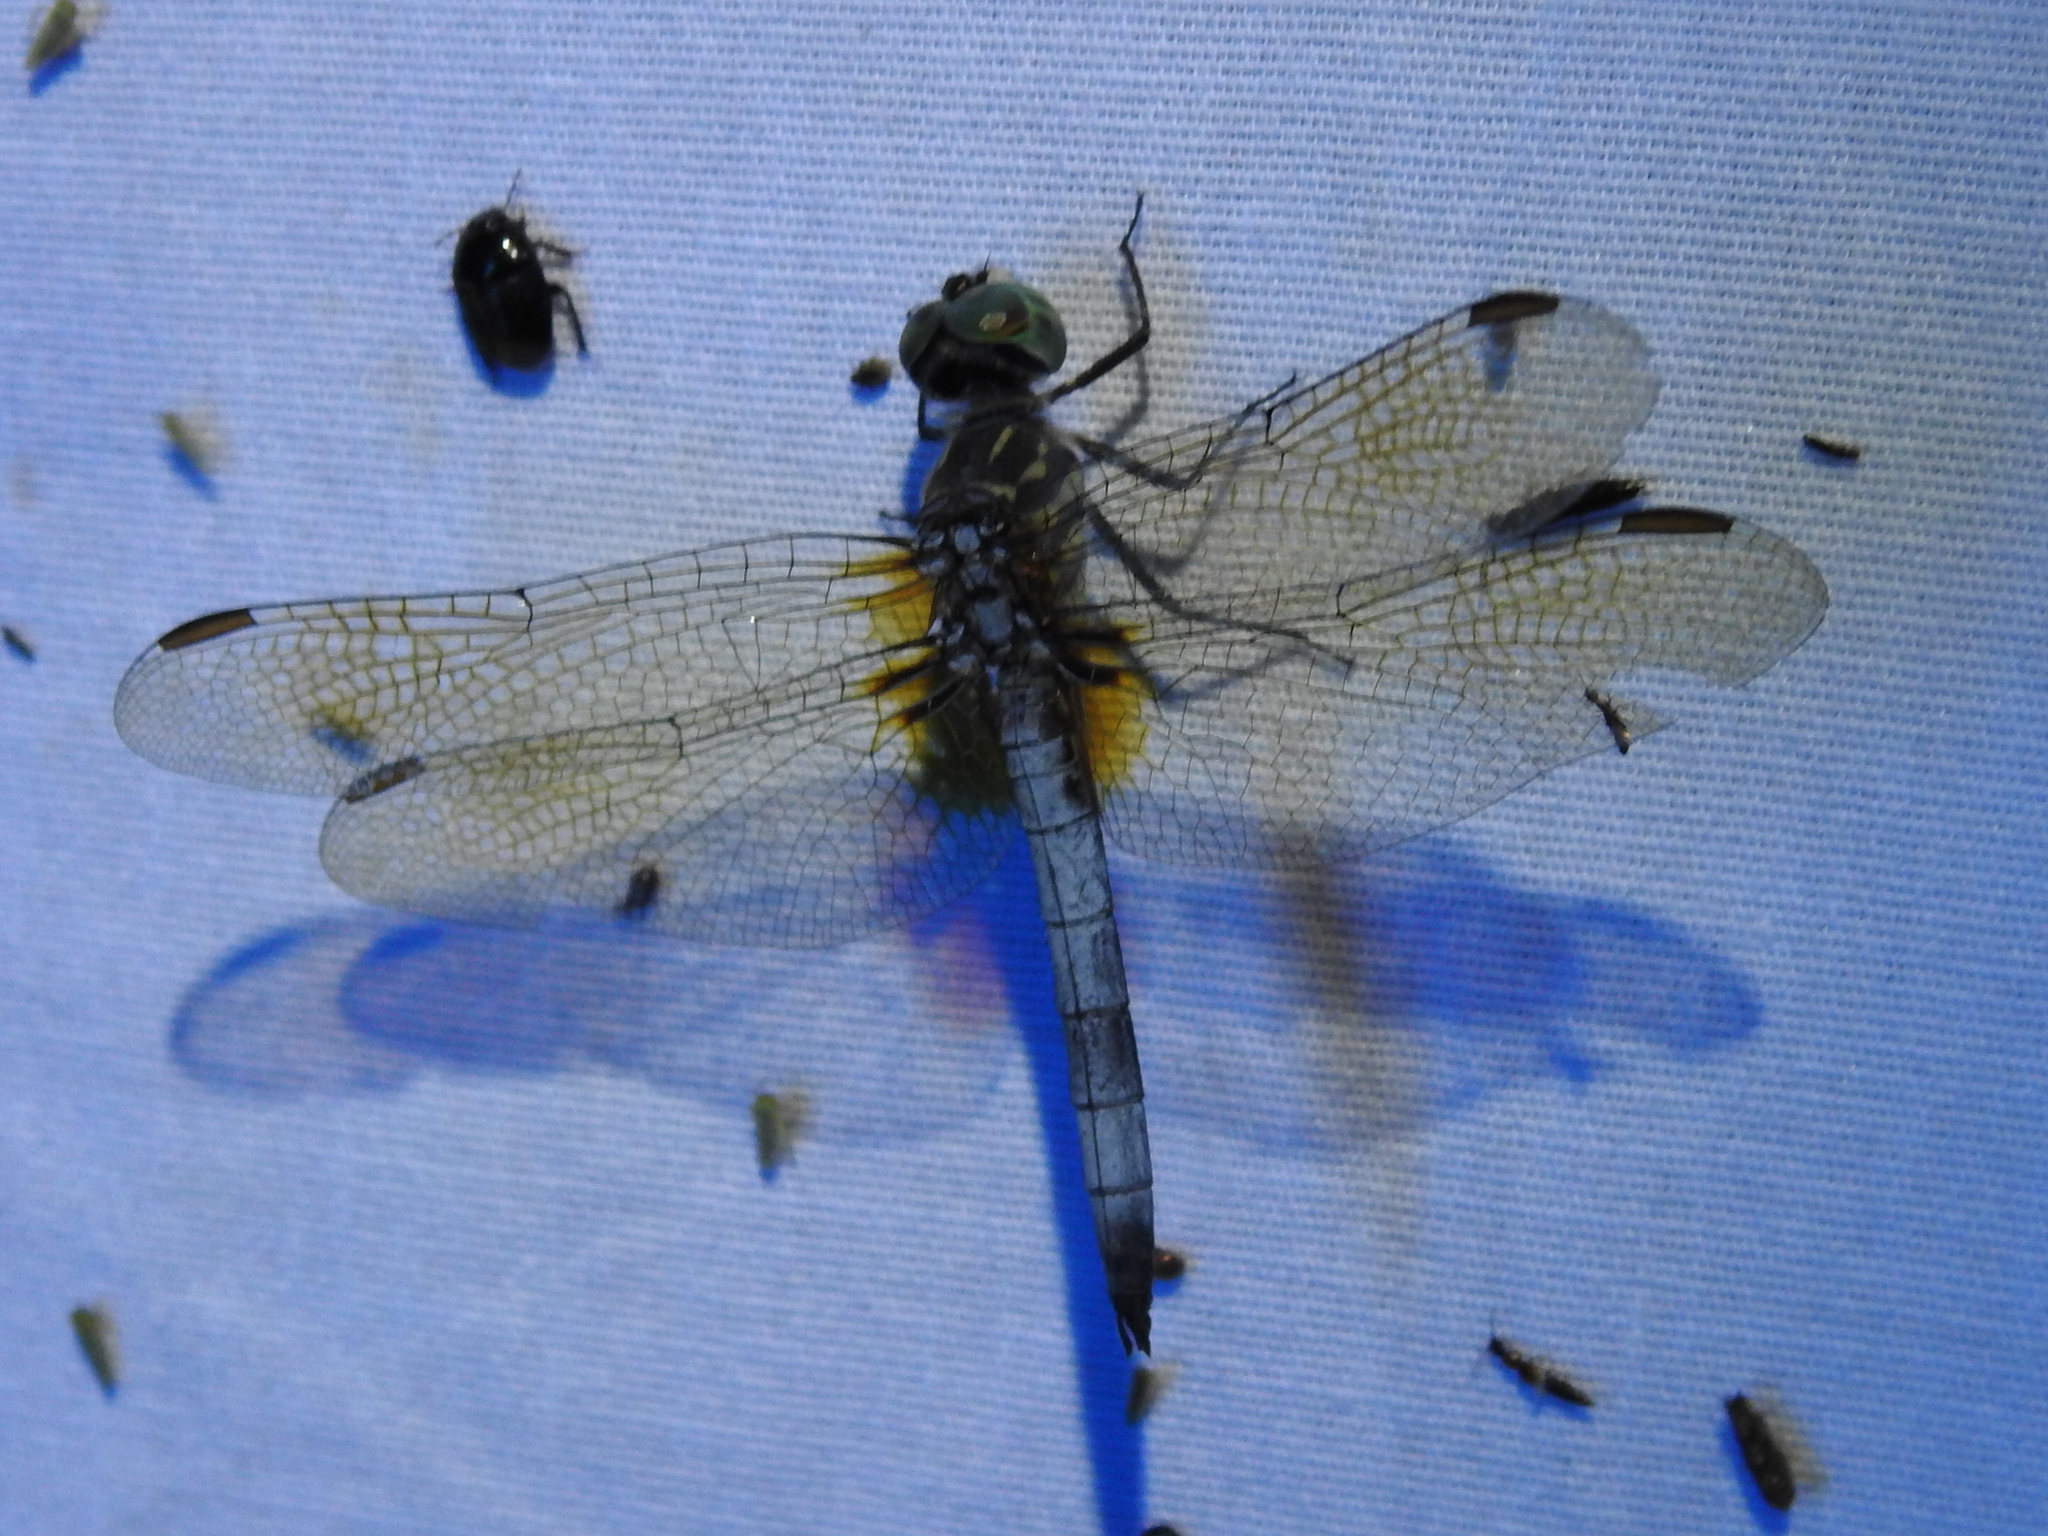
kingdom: Animalia
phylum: Arthropoda
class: Insecta
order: Odonata
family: Libellulidae
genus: Pachydiplax
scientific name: Pachydiplax longipennis
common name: Blue dasher
